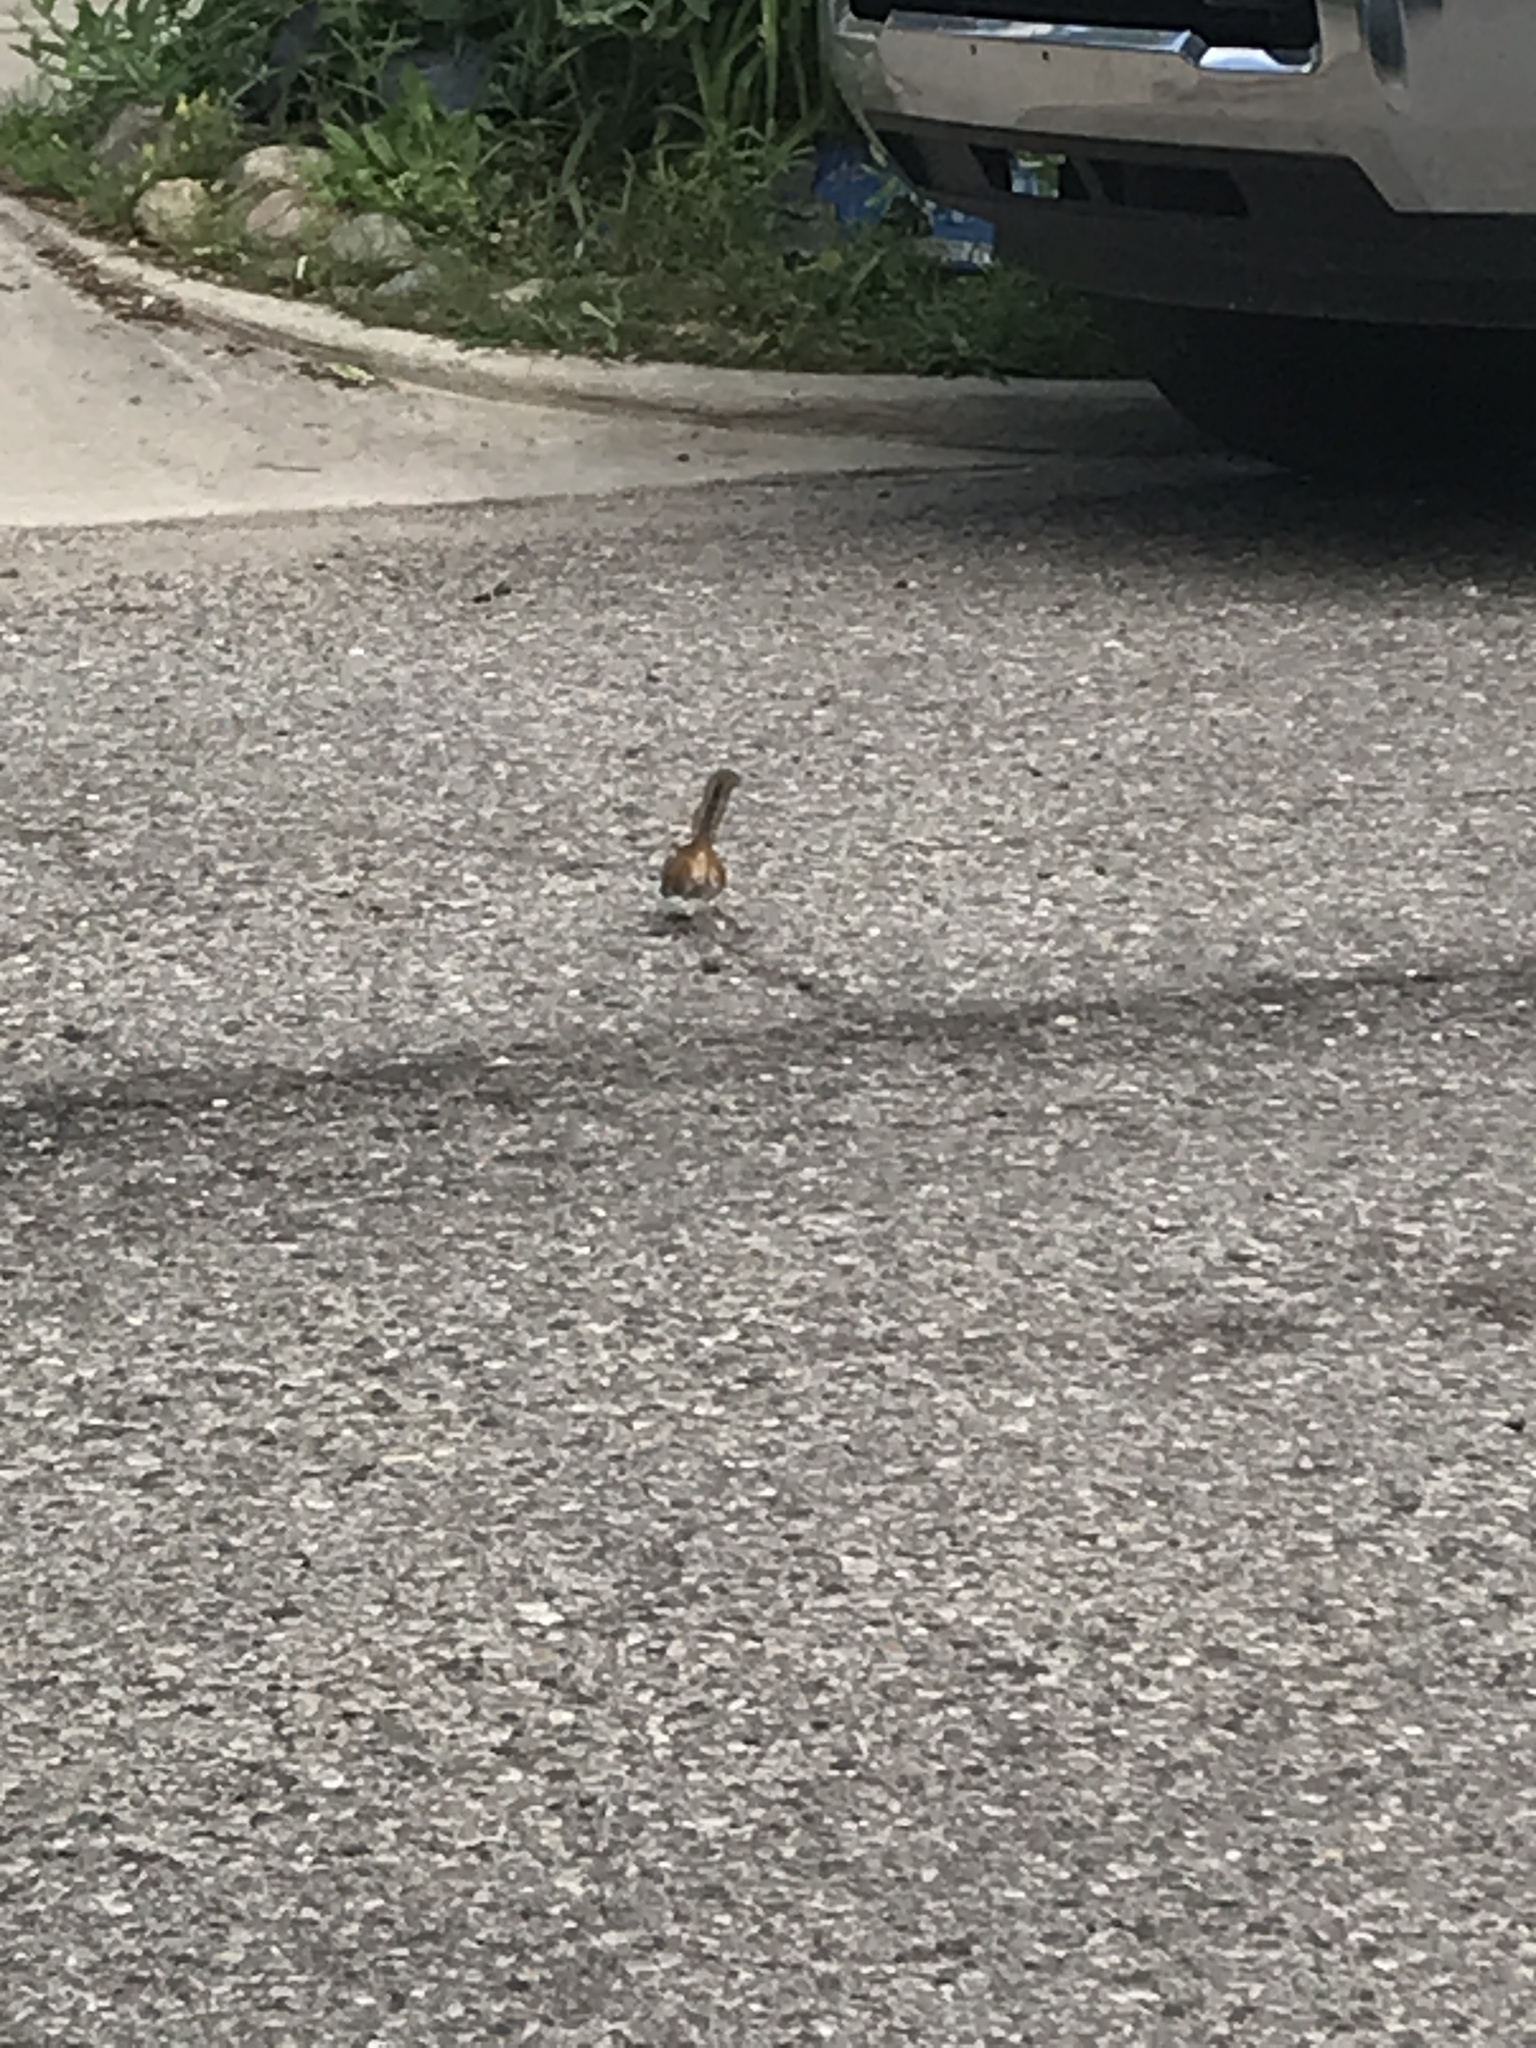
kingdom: Animalia
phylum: Chordata
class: Mammalia
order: Rodentia
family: Sciuridae
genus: Tamias
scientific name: Tamias striatus
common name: Eastern chipmunk
